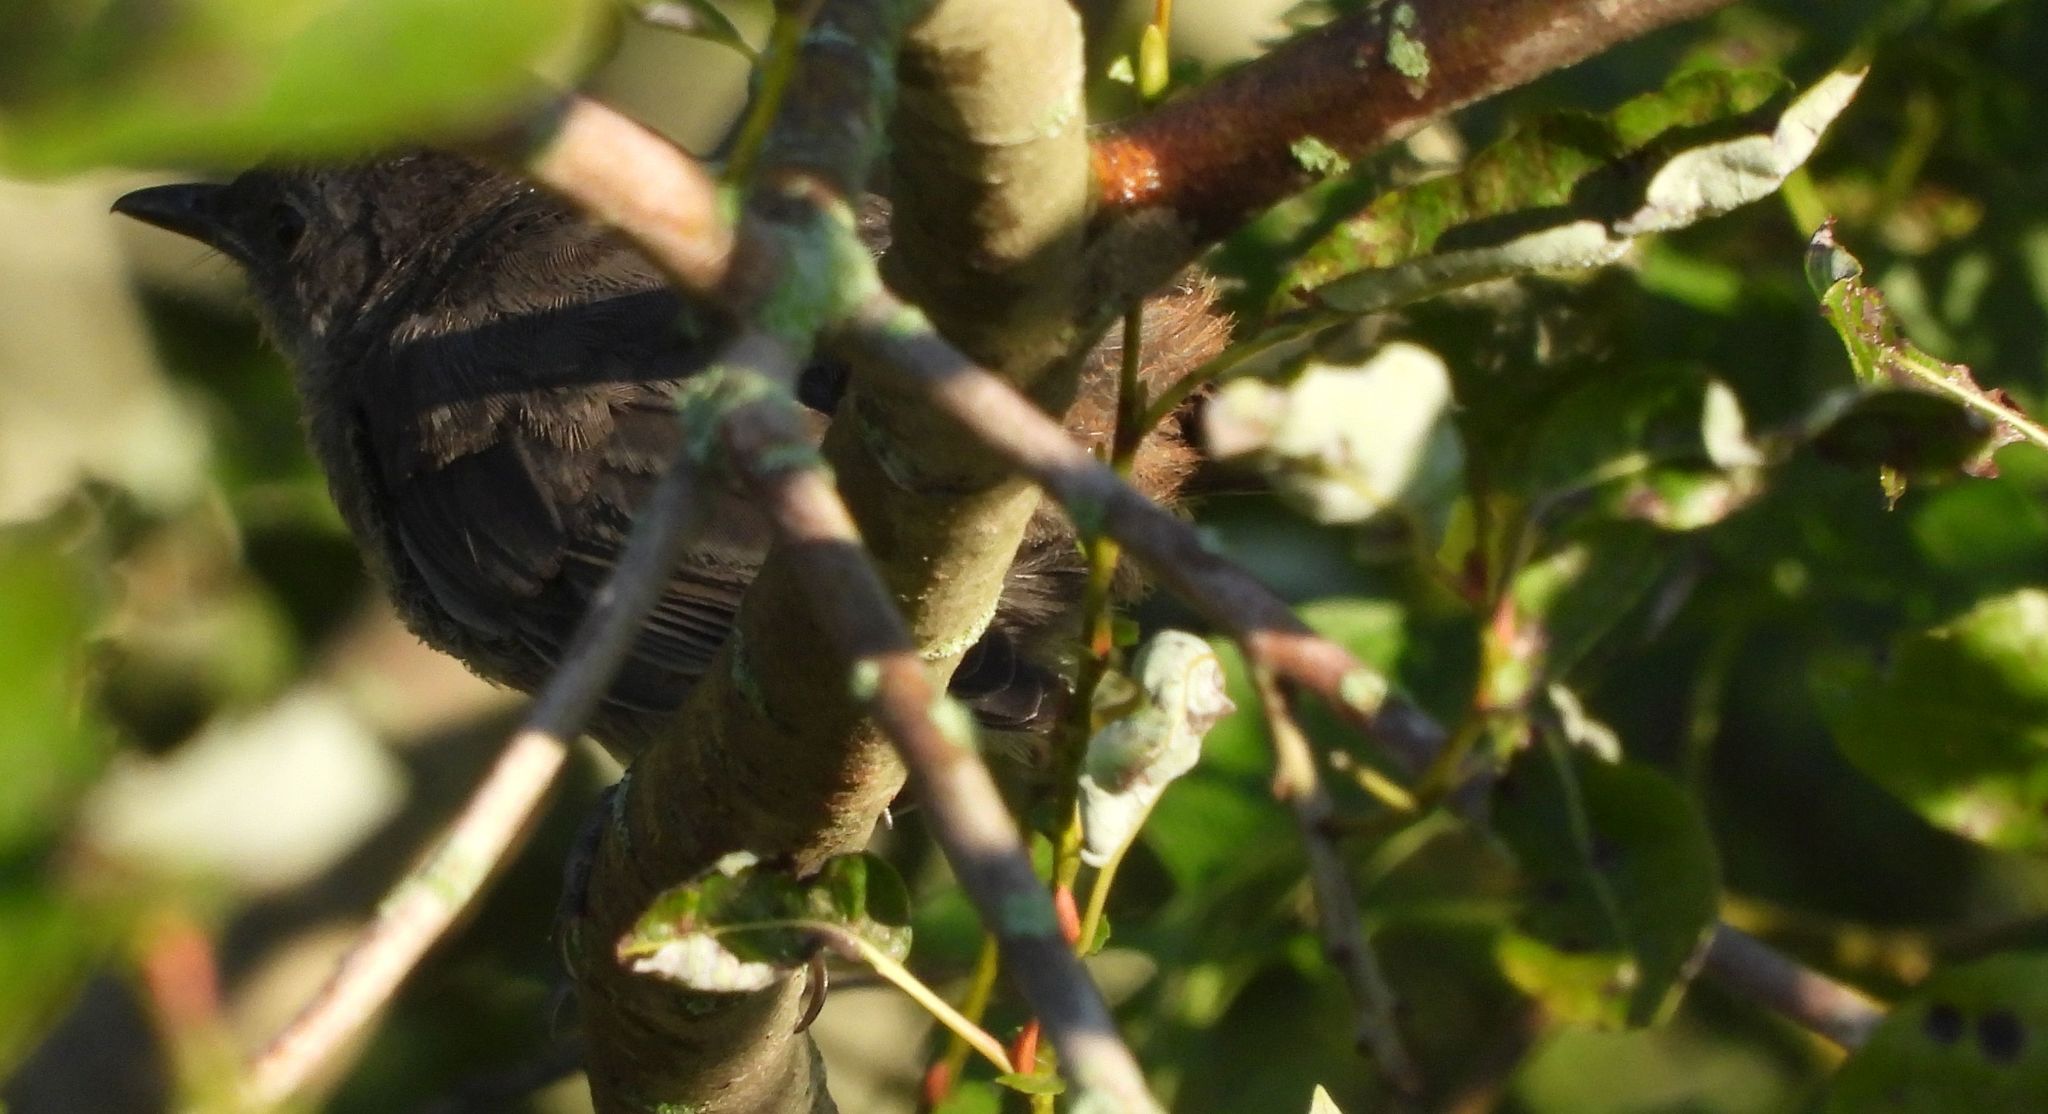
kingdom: Animalia
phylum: Chordata
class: Aves
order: Passeriformes
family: Mimidae
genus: Dumetella
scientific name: Dumetella carolinensis
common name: Gray catbird
